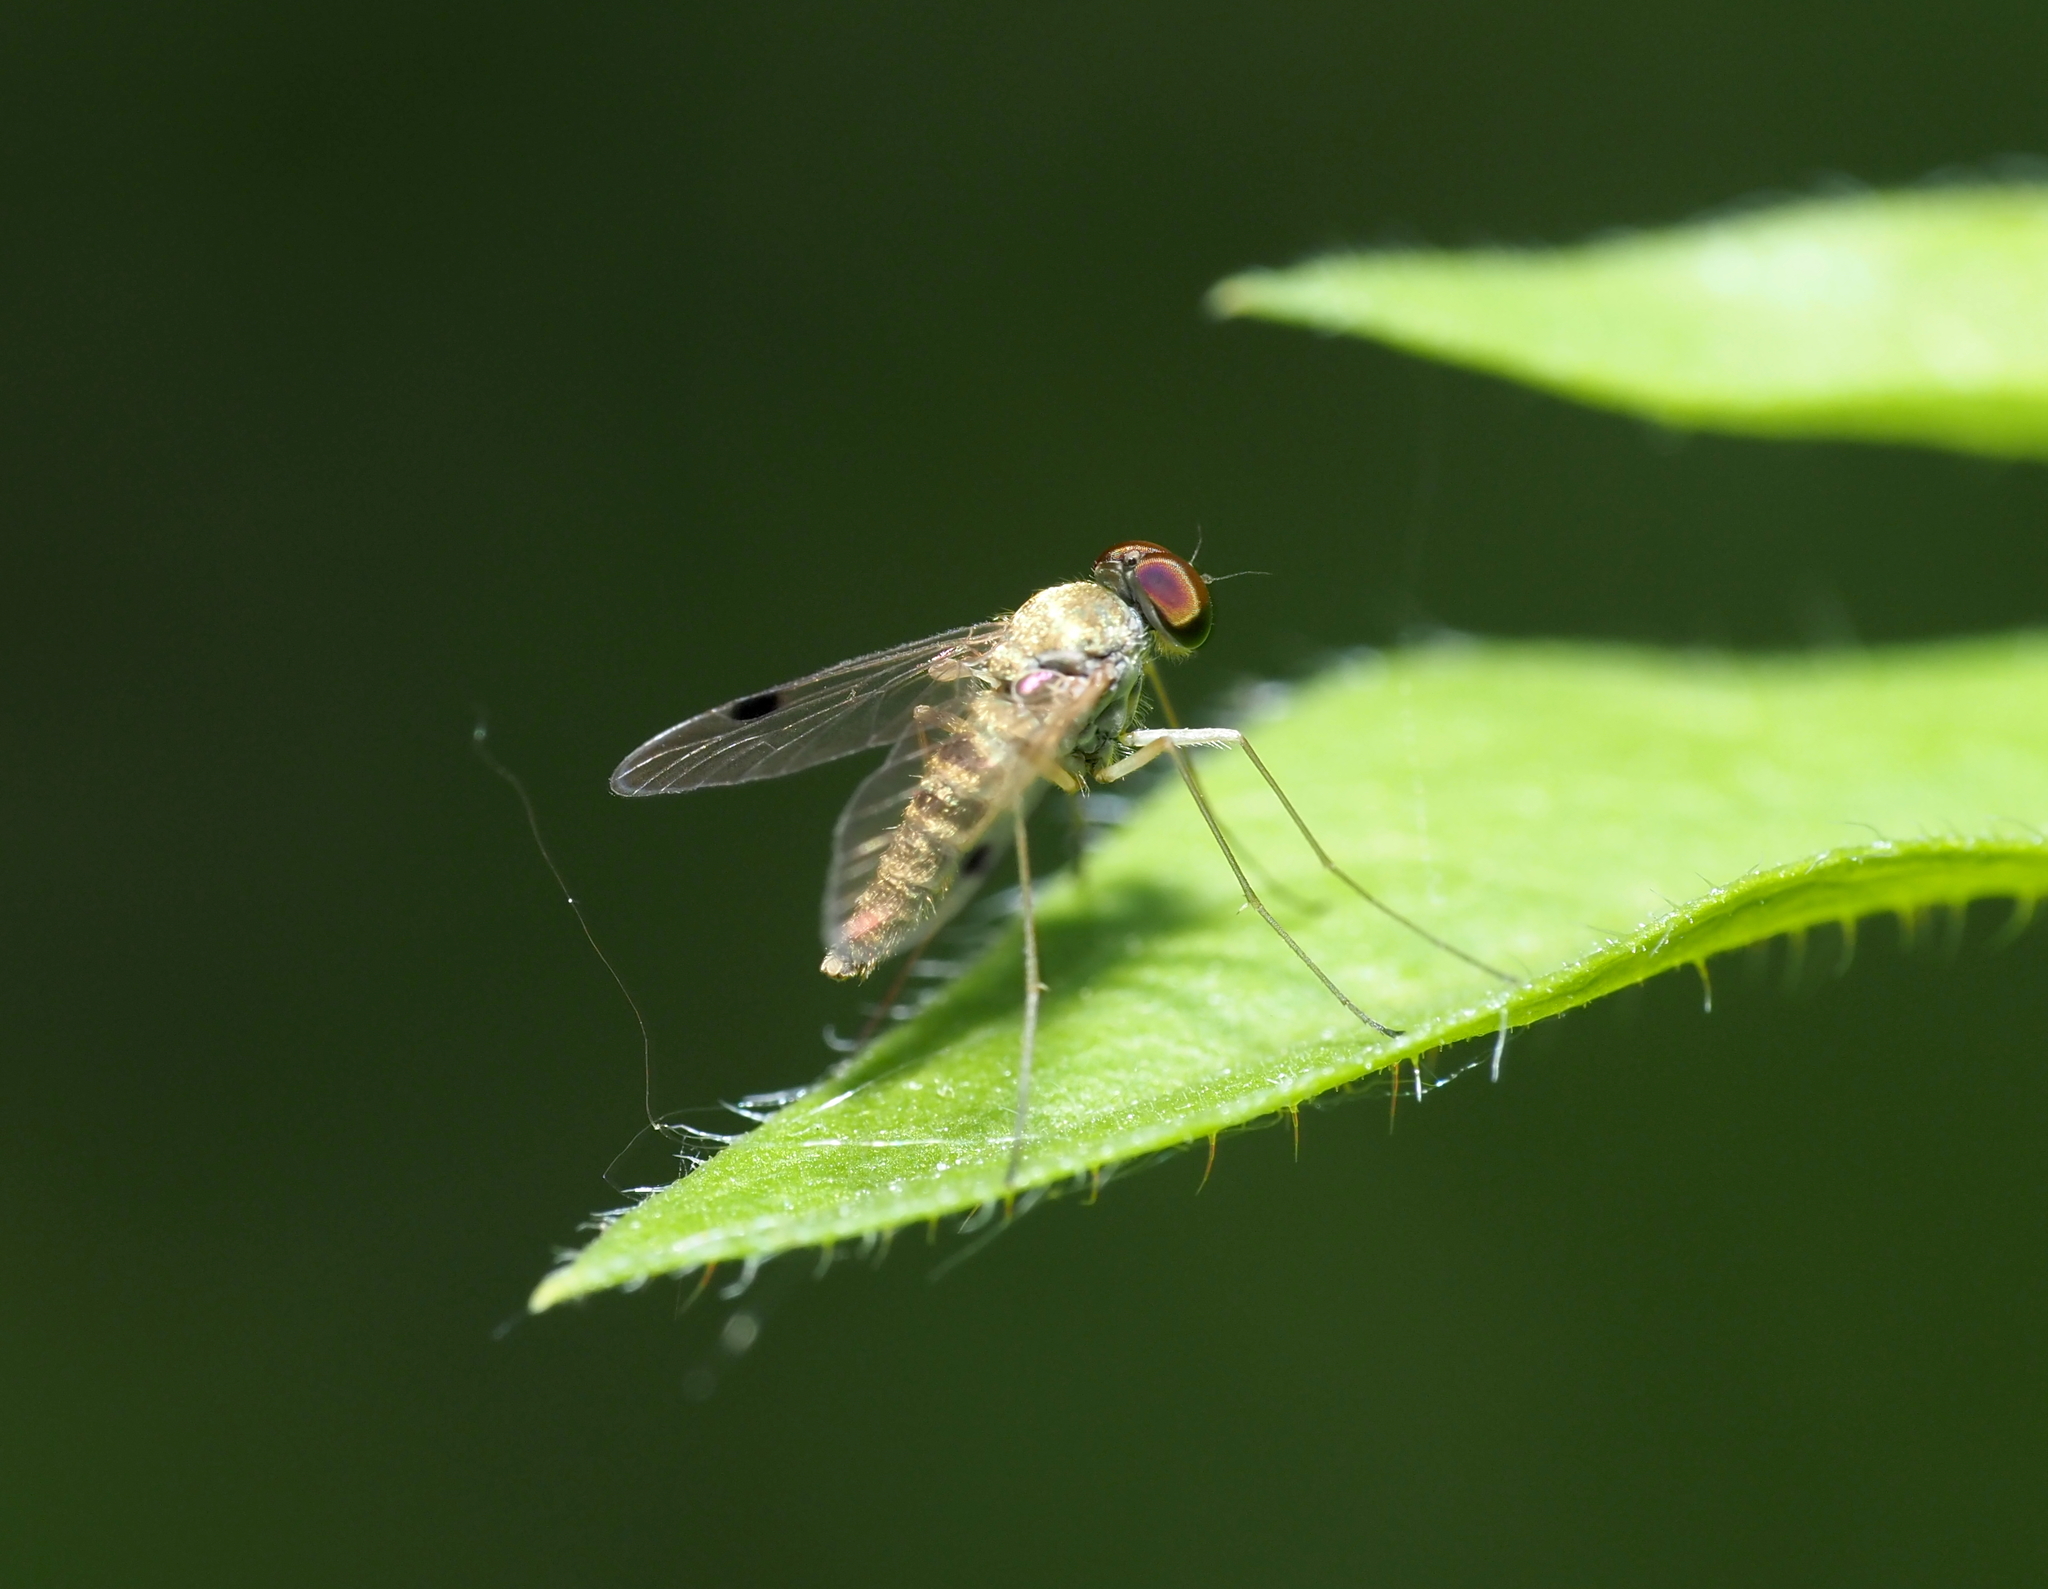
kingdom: Animalia
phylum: Arthropoda
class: Insecta
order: Diptera
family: Rhagionidae
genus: Chrysopilus
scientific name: Chrysopilus modestus
